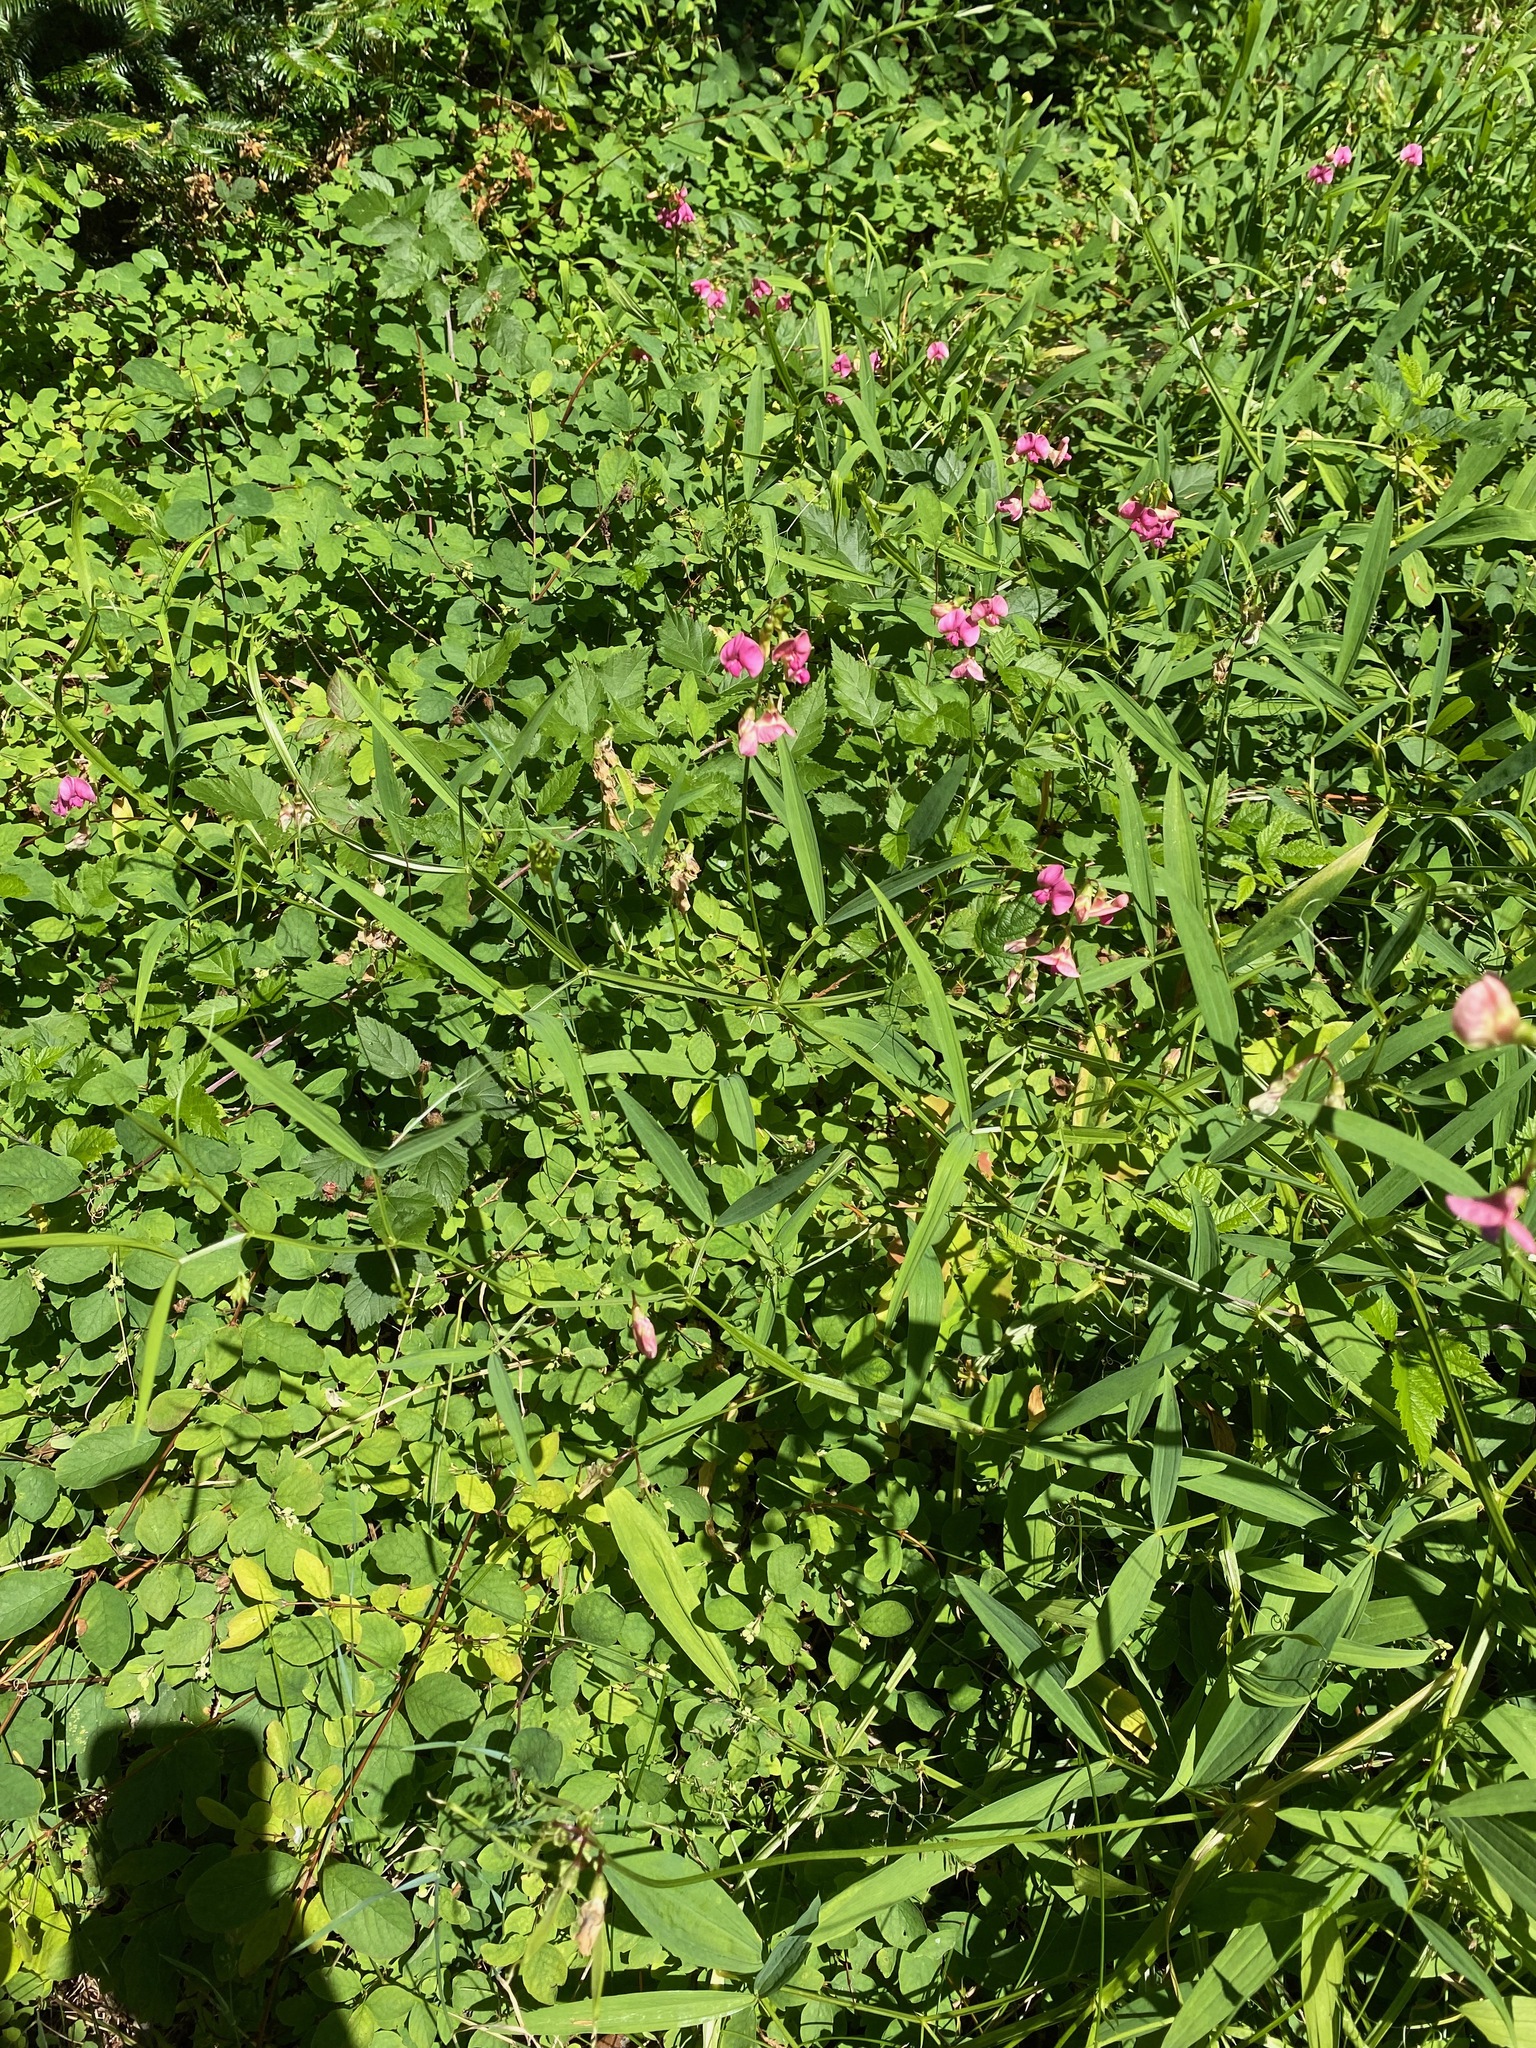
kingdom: Plantae
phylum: Tracheophyta
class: Magnoliopsida
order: Fabales
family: Fabaceae
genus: Lathyrus
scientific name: Lathyrus sylvestris
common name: Flat pea
